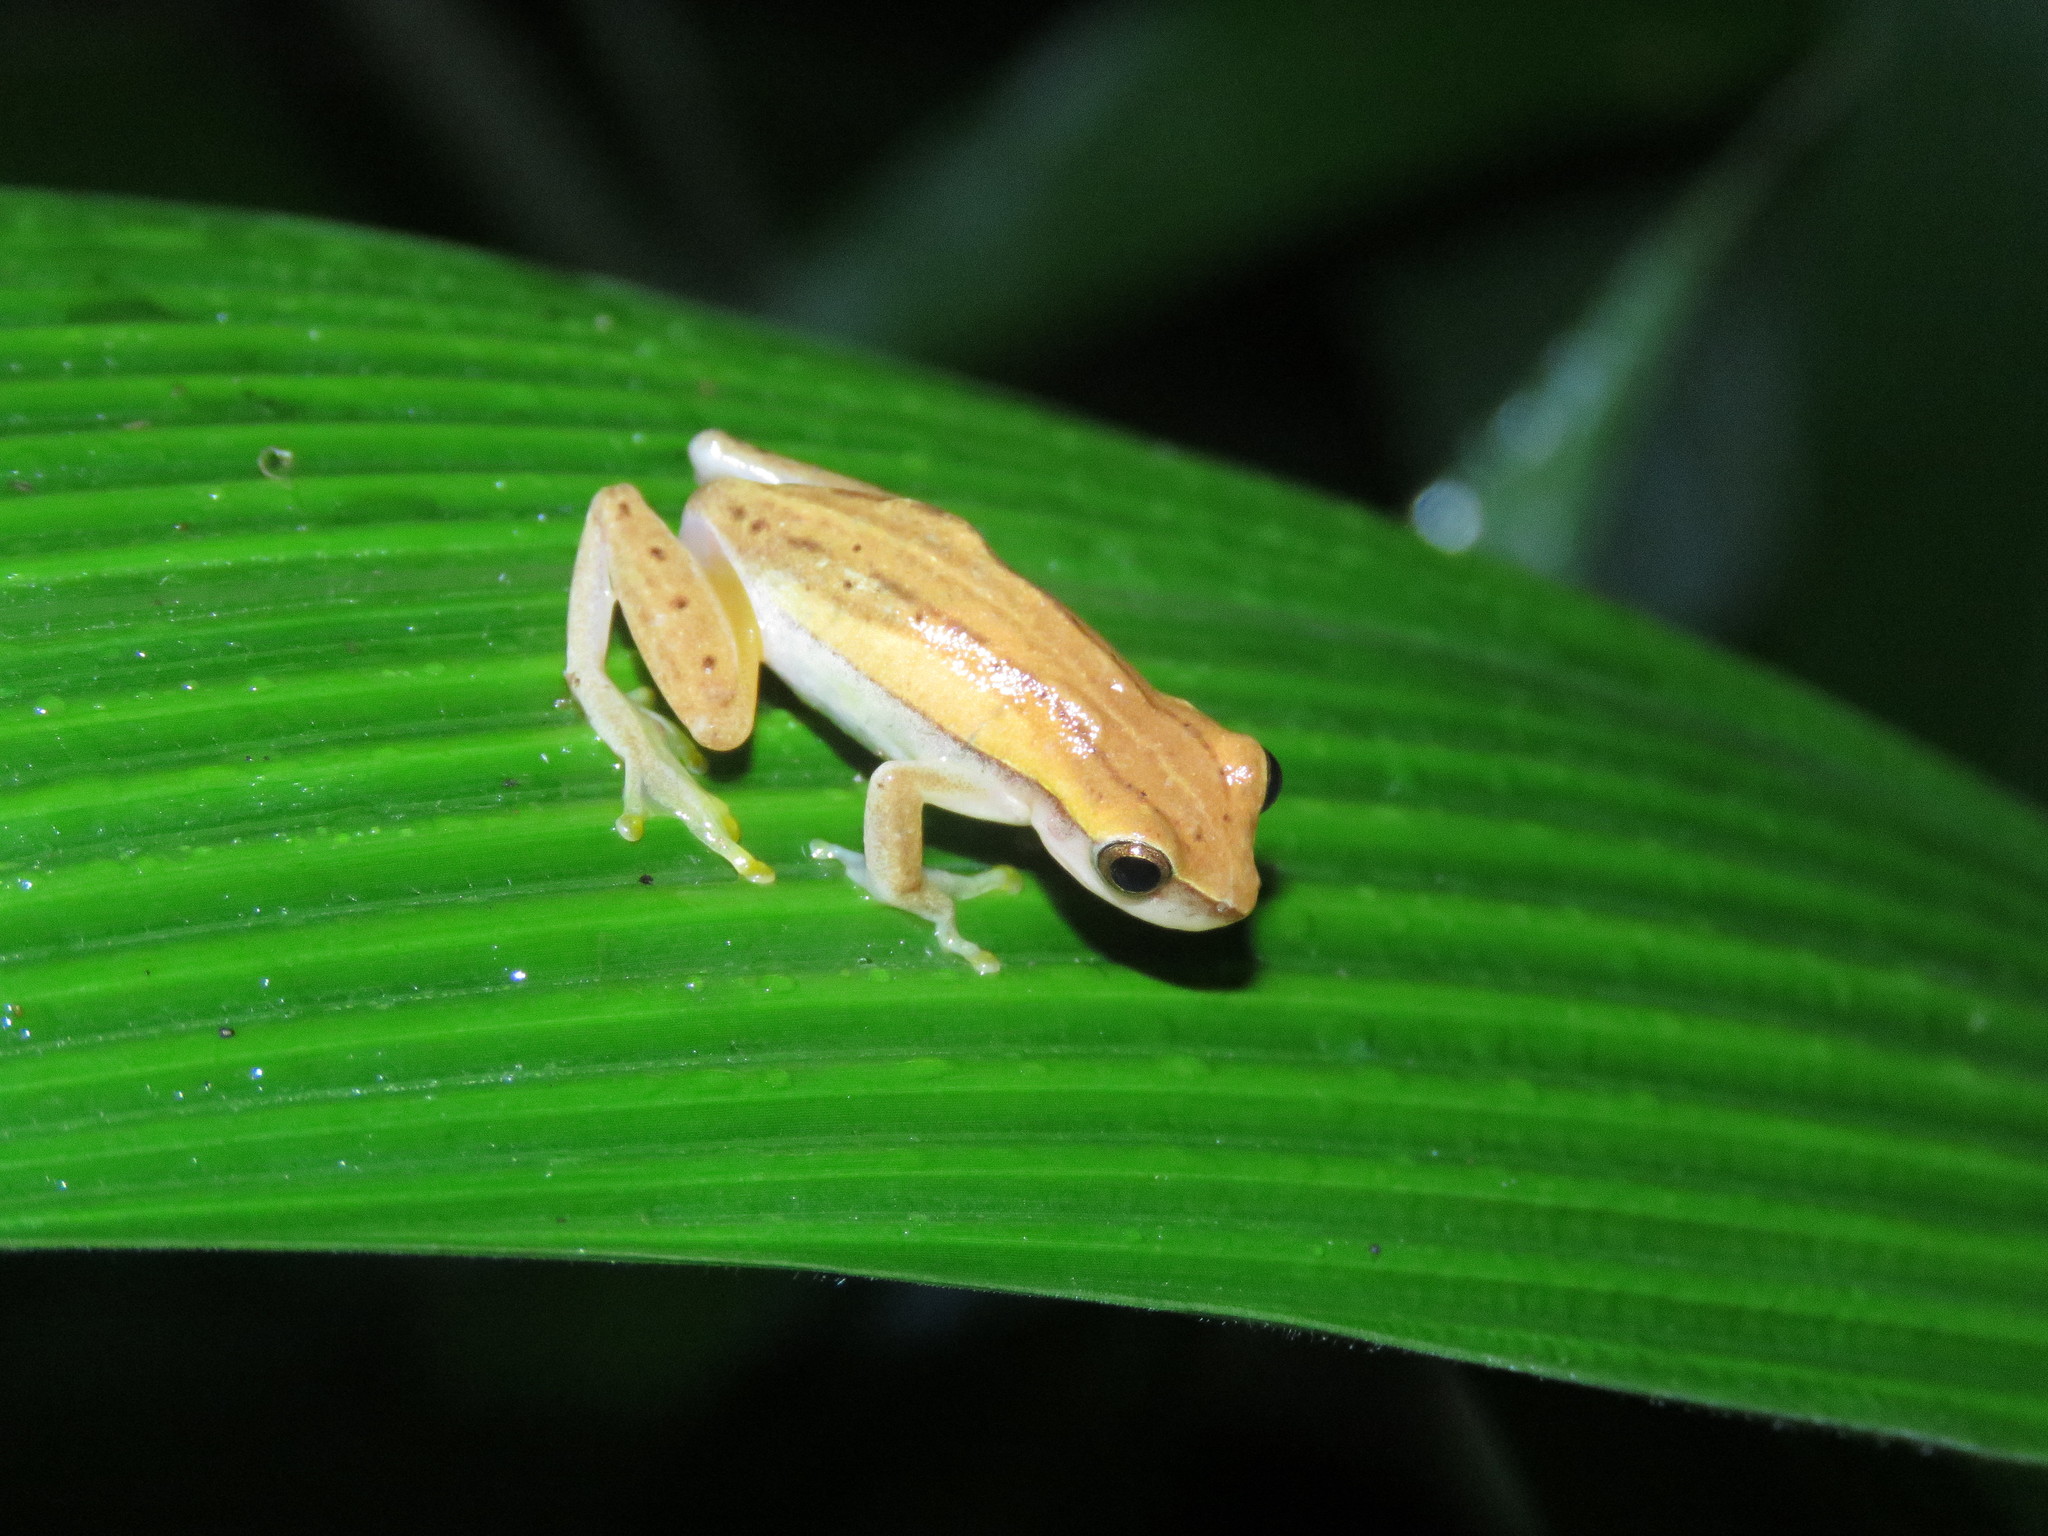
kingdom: Animalia
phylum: Chordata
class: Amphibia
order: Anura
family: Hylidae
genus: Dendropsophus
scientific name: Dendropsophus walfordi
